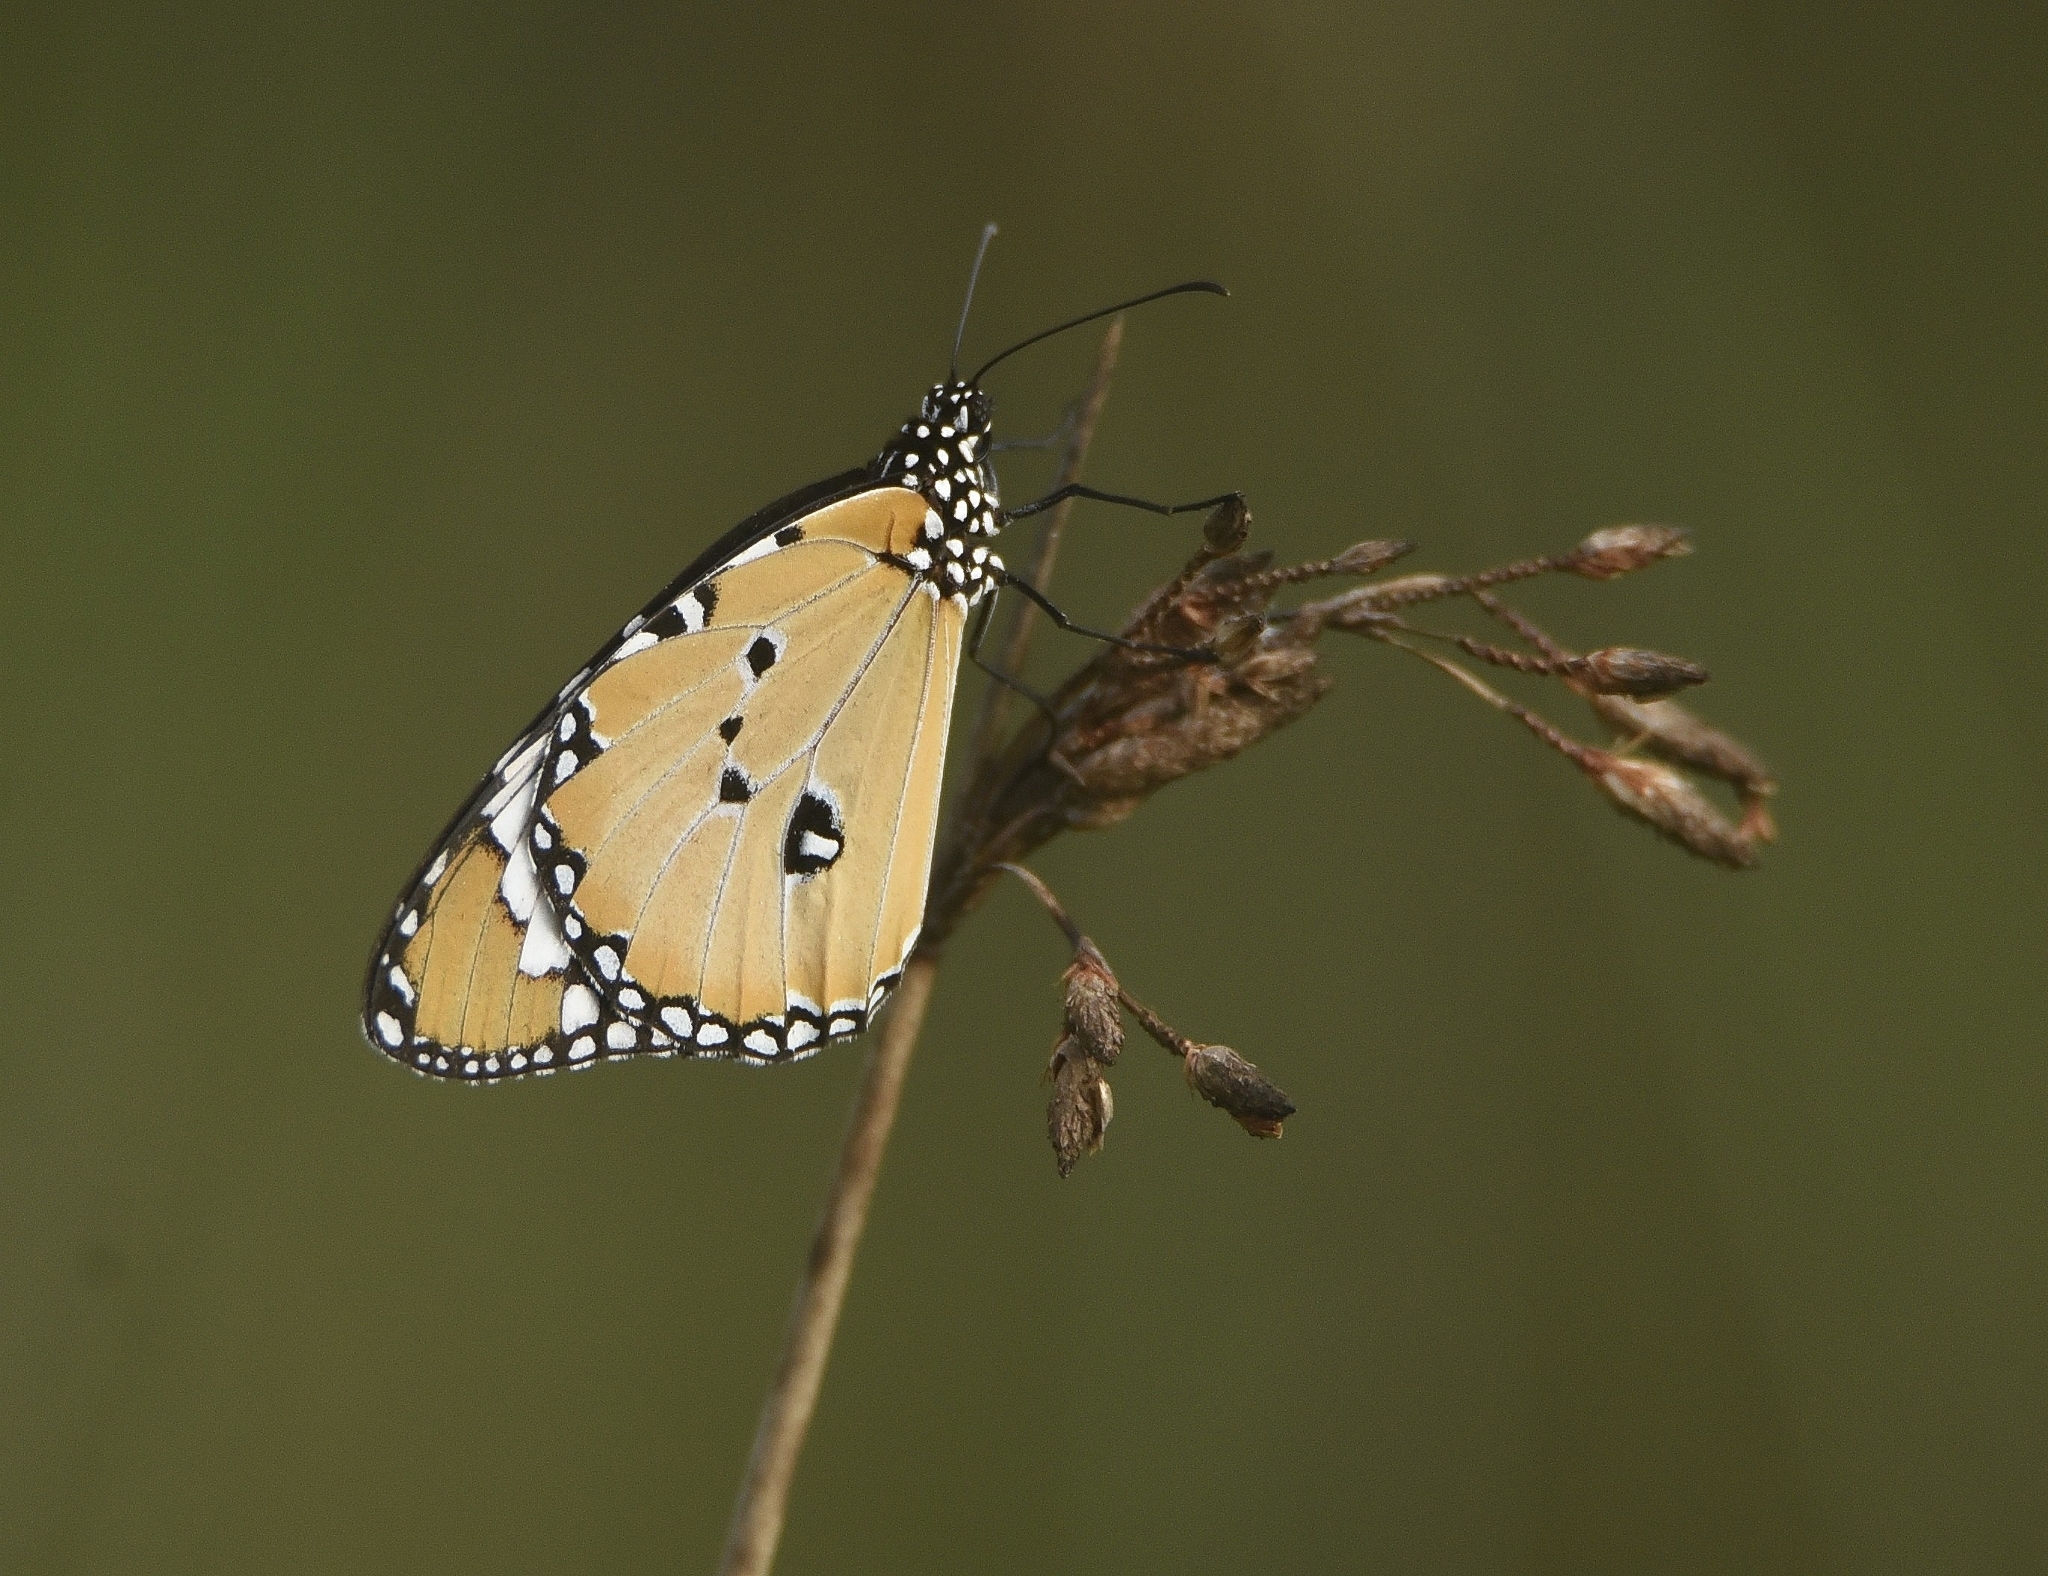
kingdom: Animalia
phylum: Arthropoda
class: Insecta
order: Lepidoptera
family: Nymphalidae
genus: Danaus
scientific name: Danaus chrysippus
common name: Plain tiger
